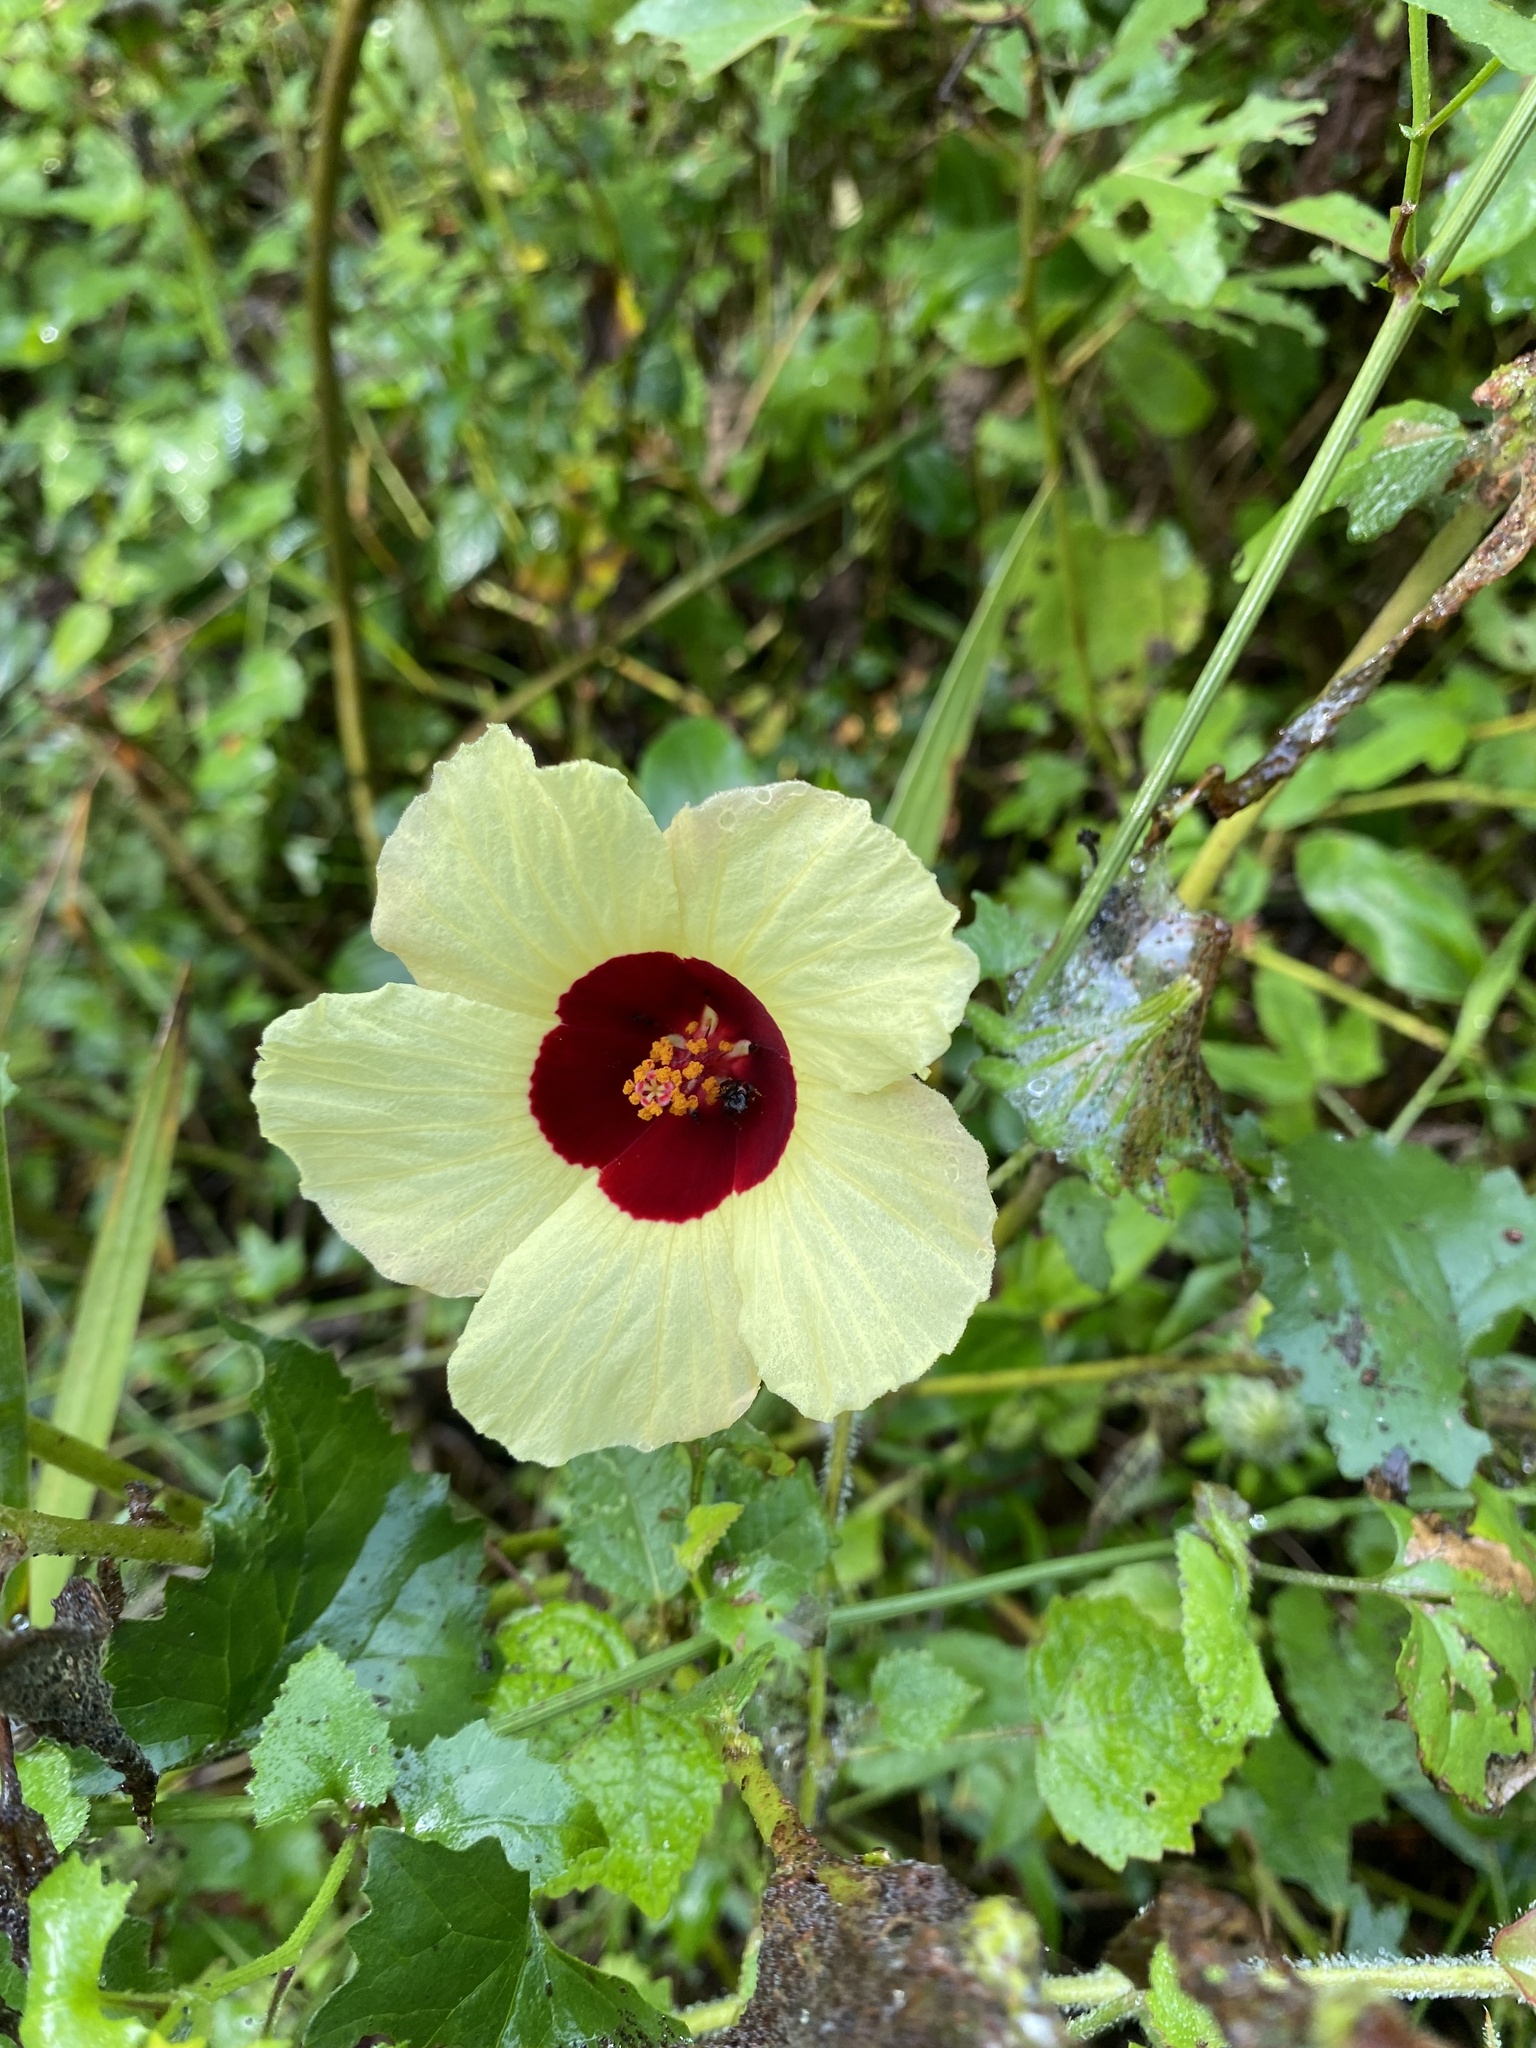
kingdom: Plantae
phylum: Tracheophyta
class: Magnoliopsida
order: Malvales
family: Malvaceae
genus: Hibiscus
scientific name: Hibiscus surattensis
